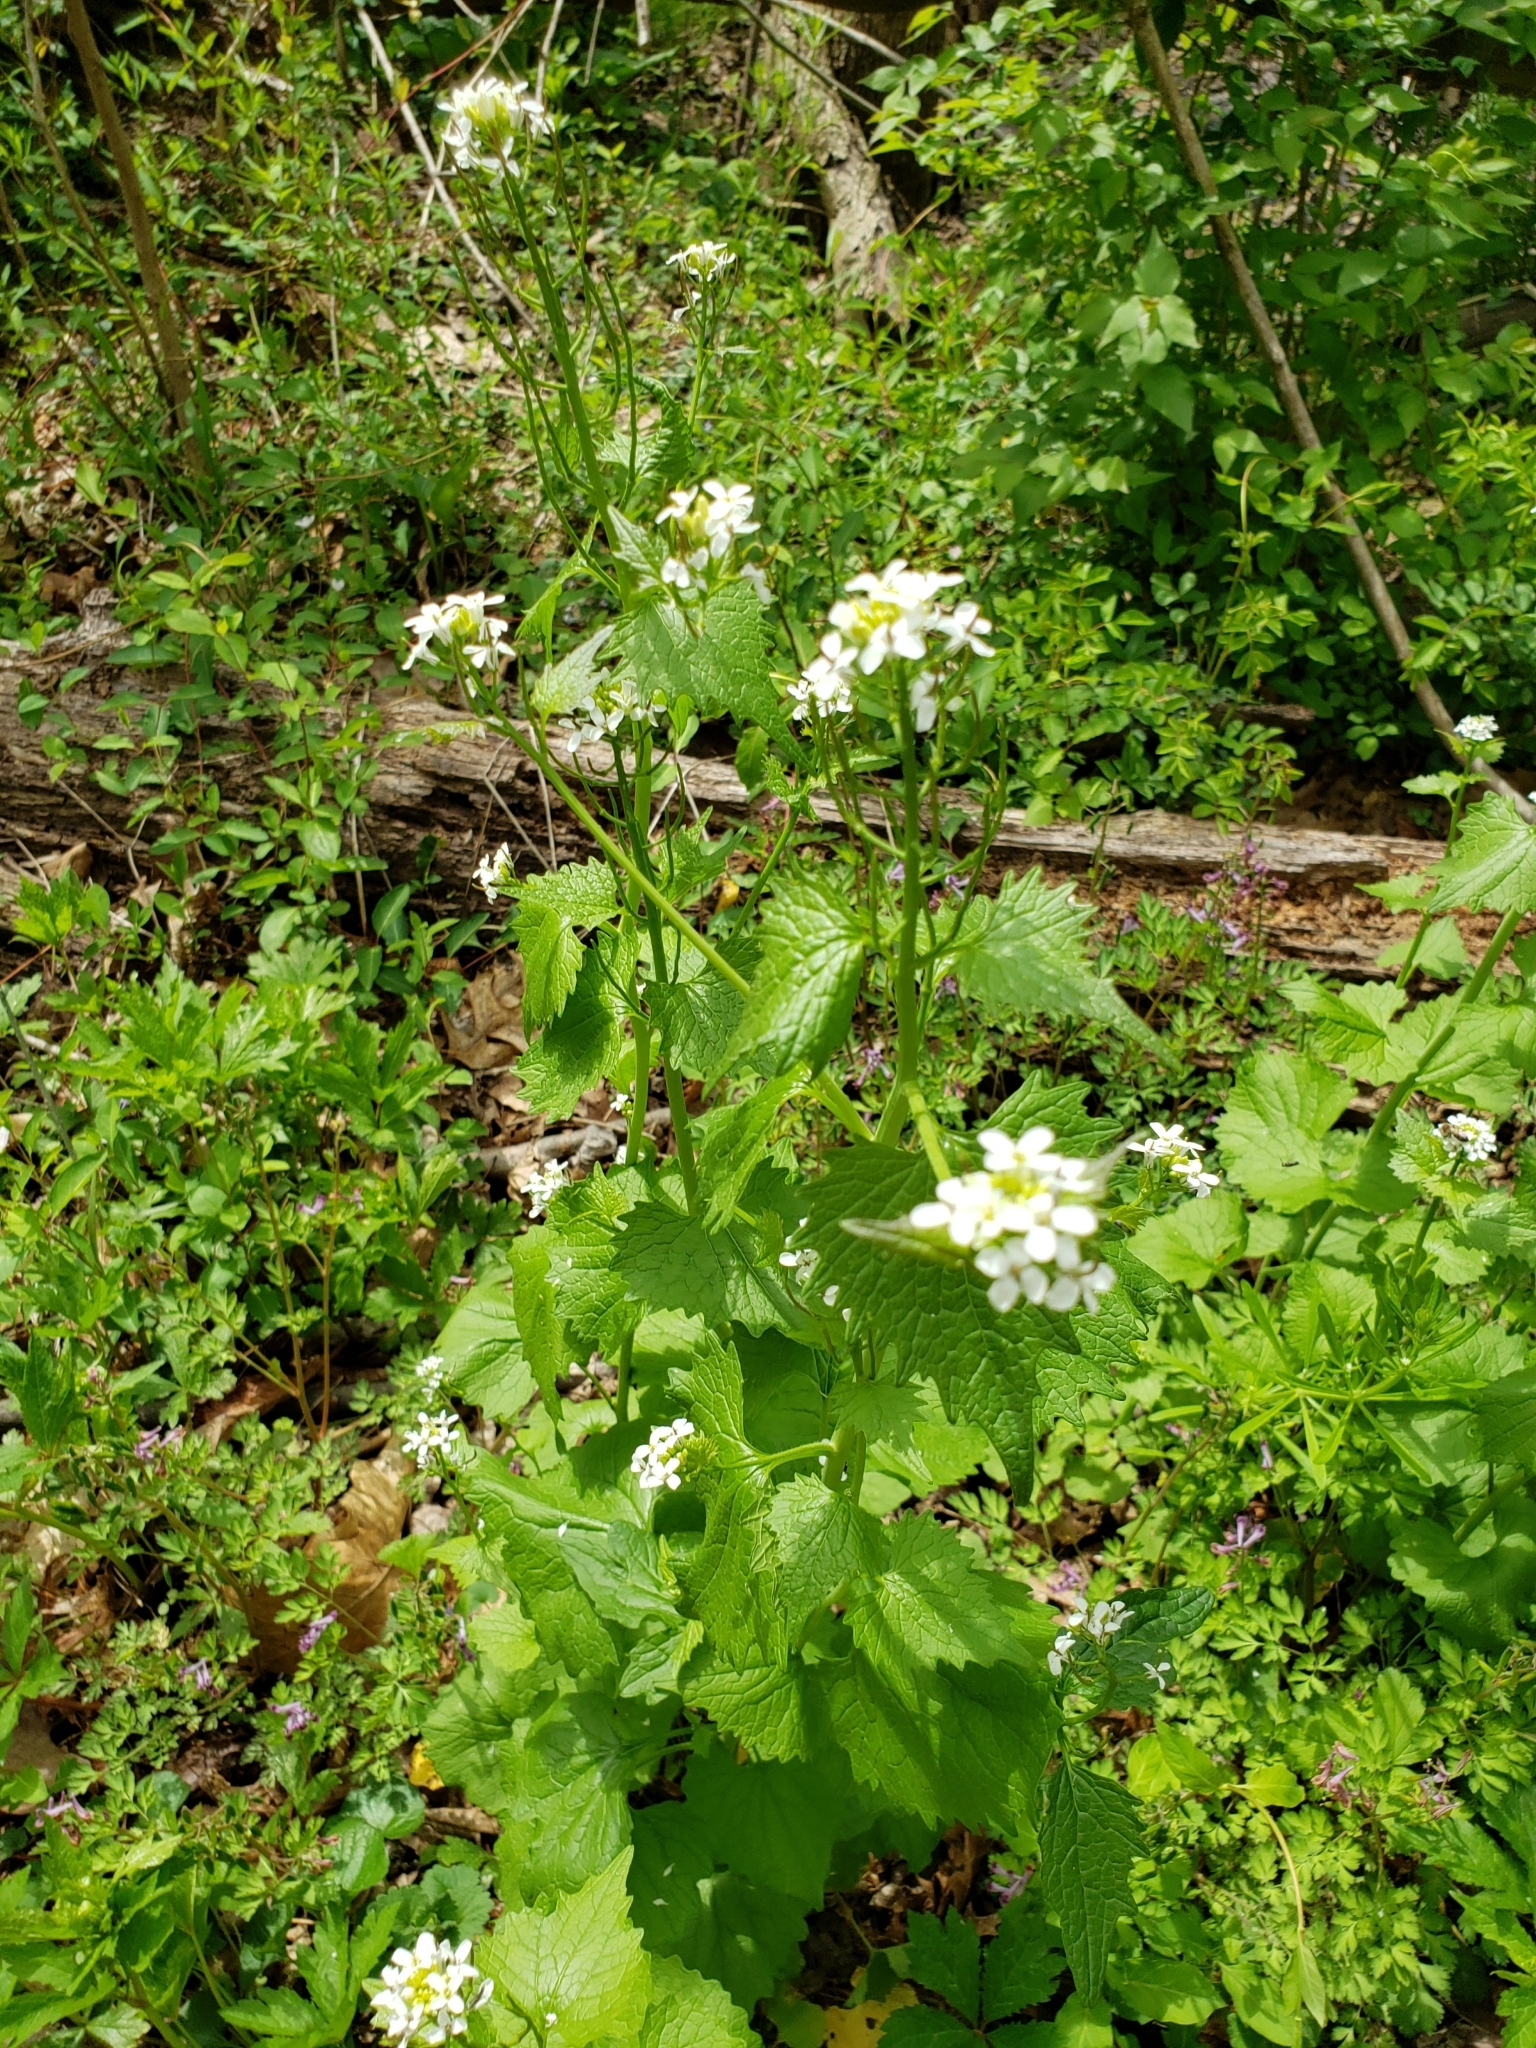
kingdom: Plantae
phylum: Tracheophyta
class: Magnoliopsida
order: Brassicales
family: Brassicaceae
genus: Alliaria
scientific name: Alliaria petiolata
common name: Garlic mustard
